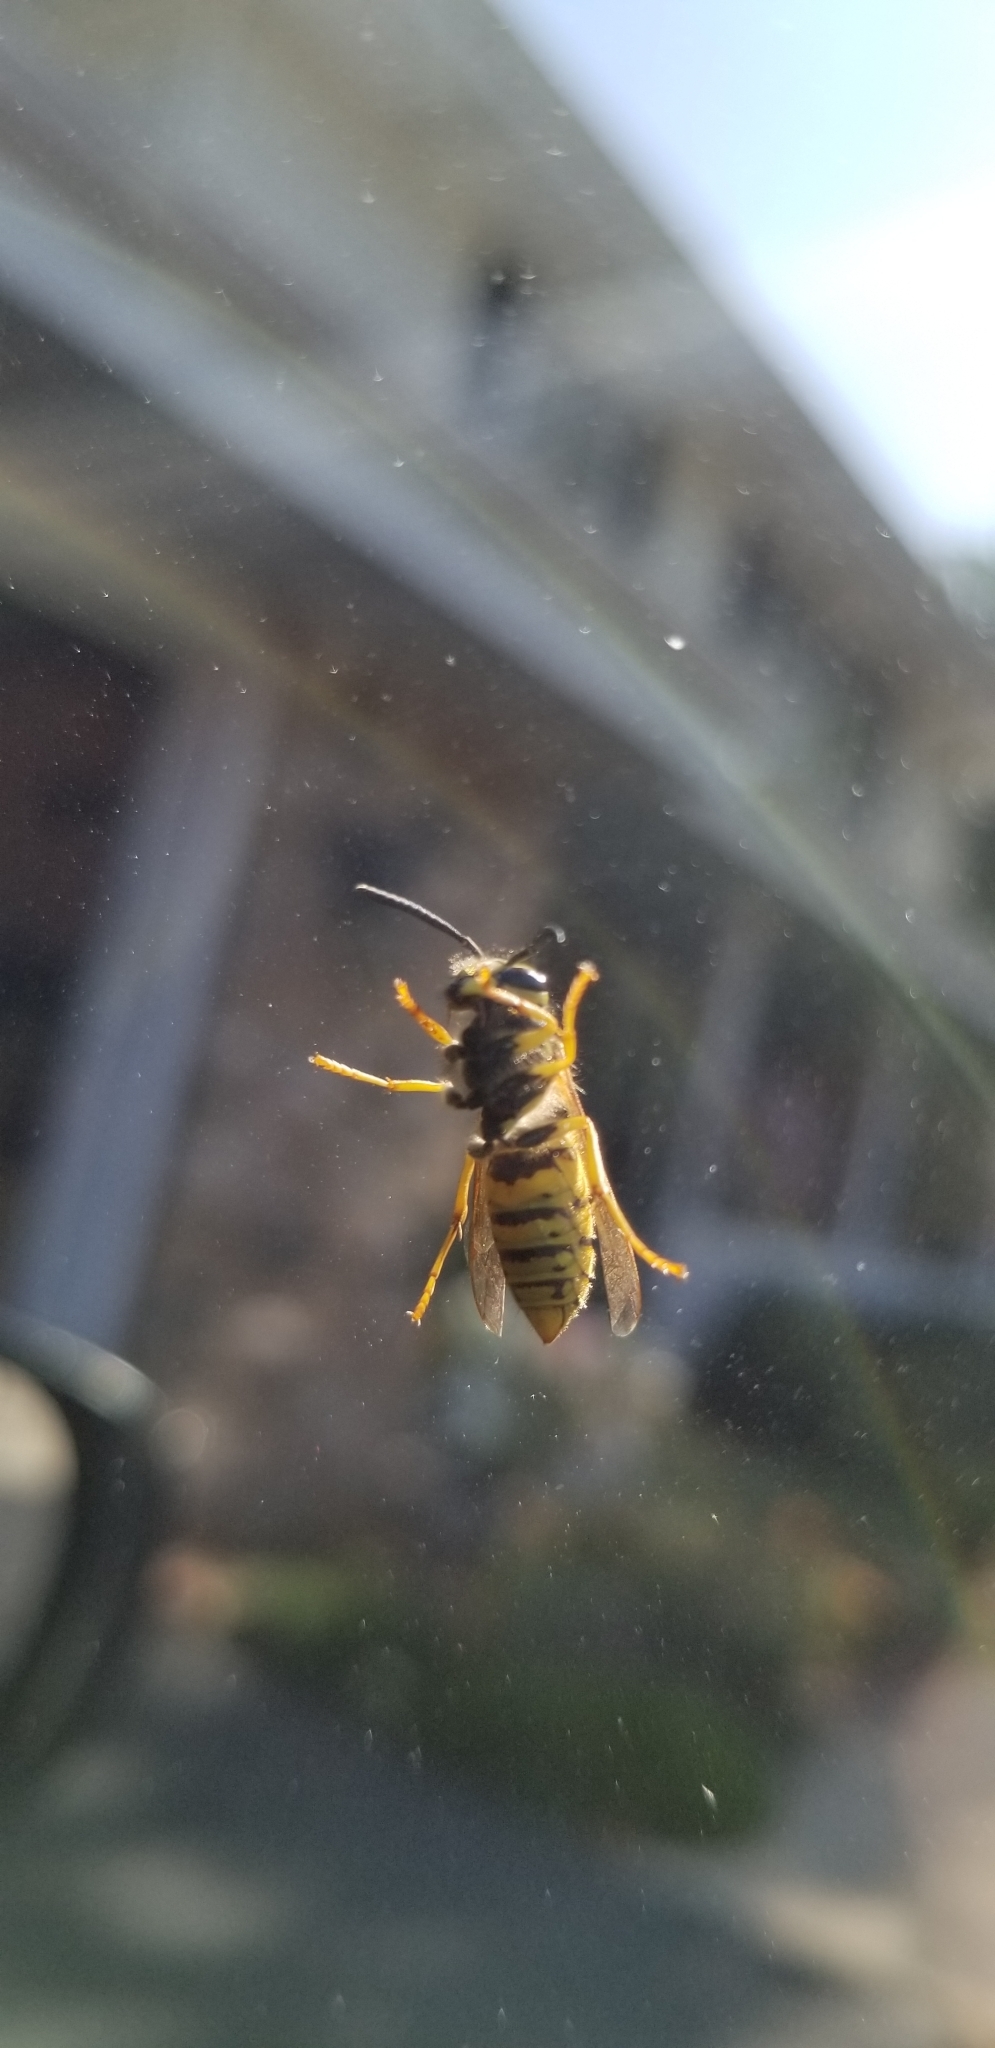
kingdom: Animalia
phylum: Arthropoda
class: Insecta
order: Hymenoptera
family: Vespidae
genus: Vespula
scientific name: Vespula
